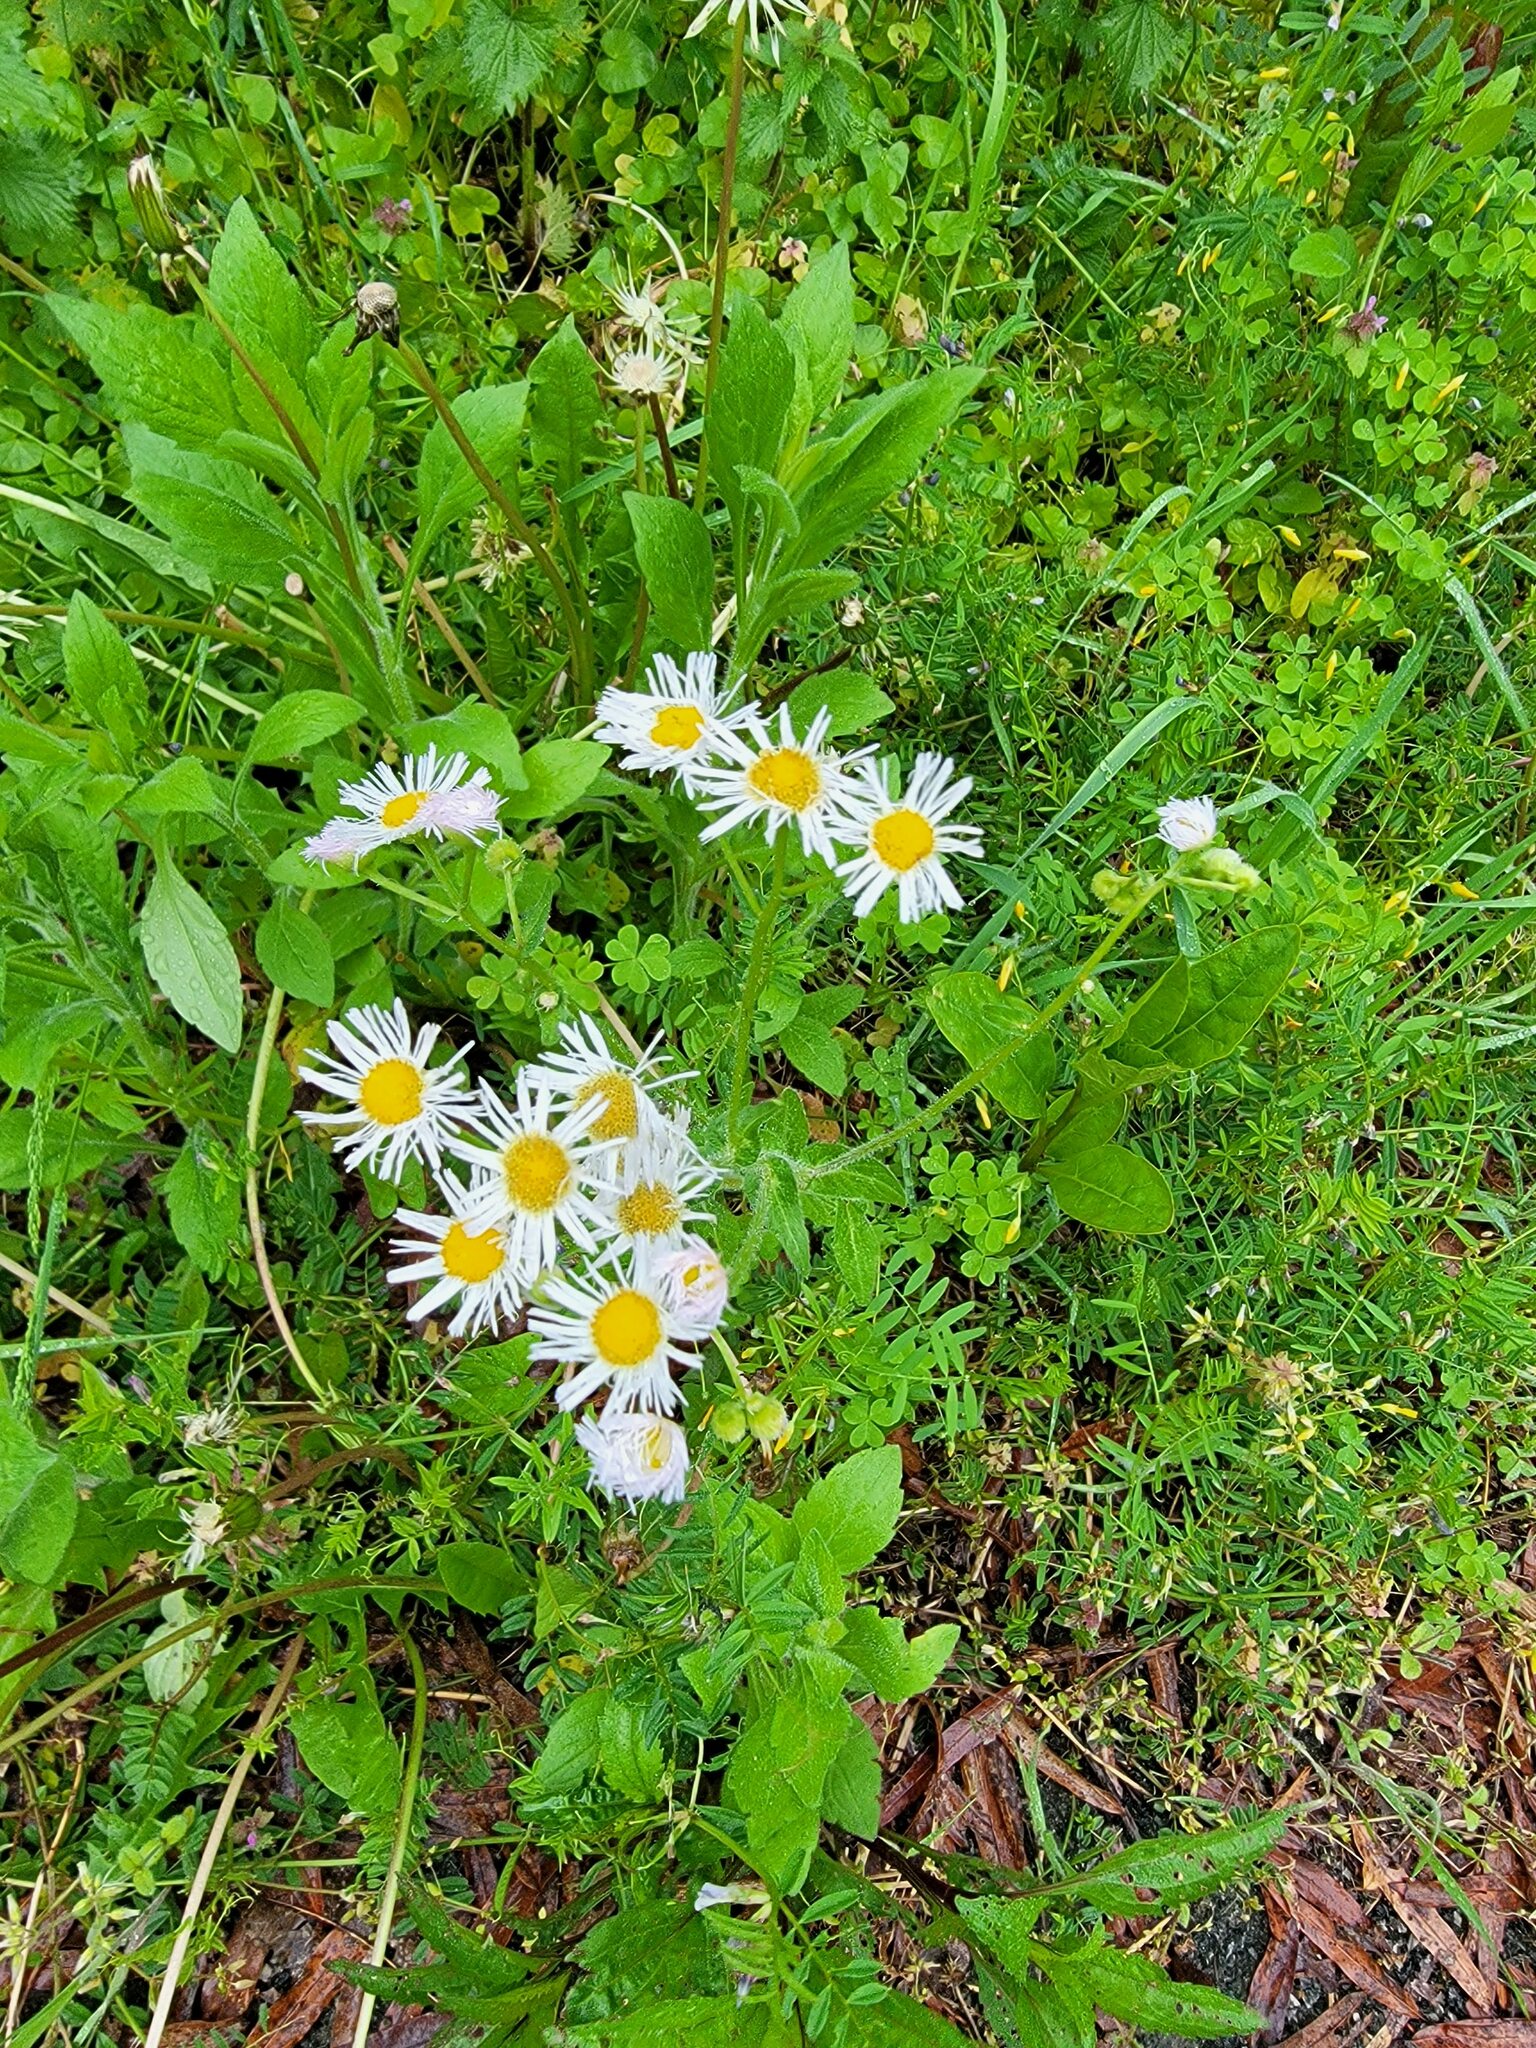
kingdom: Plantae
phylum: Tracheophyta
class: Magnoliopsida
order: Asterales
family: Asteraceae
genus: Erigeron
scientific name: Erigeron philadelphicus
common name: Robin's-plantain
